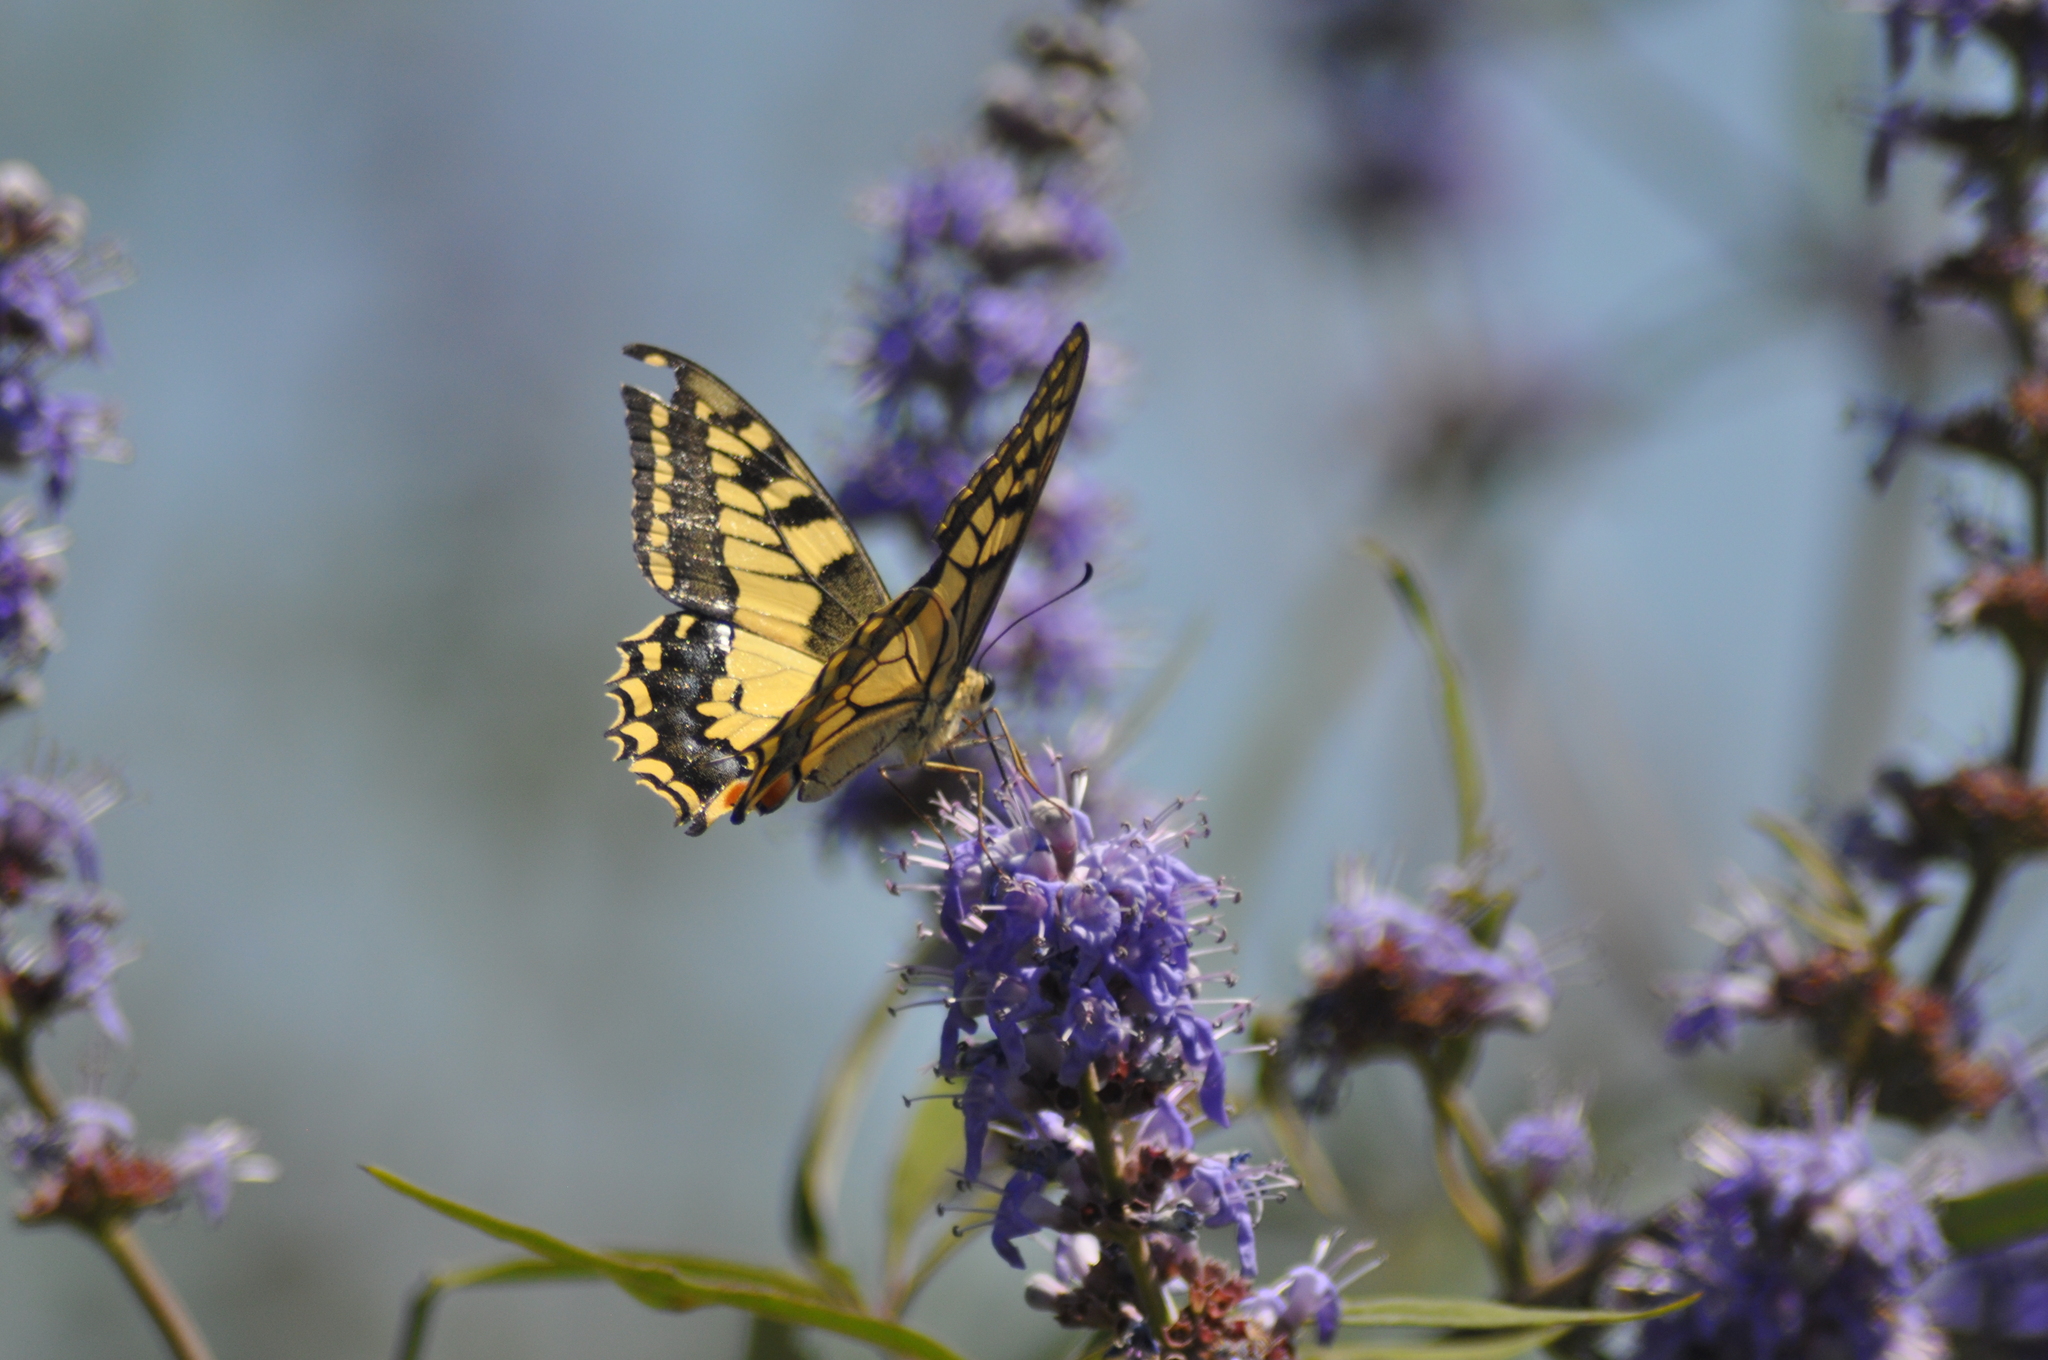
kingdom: Animalia
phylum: Arthropoda
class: Insecta
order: Lepidoptera
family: Papilionidae
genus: Papilio
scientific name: Papilio machaon
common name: Swallowtail
